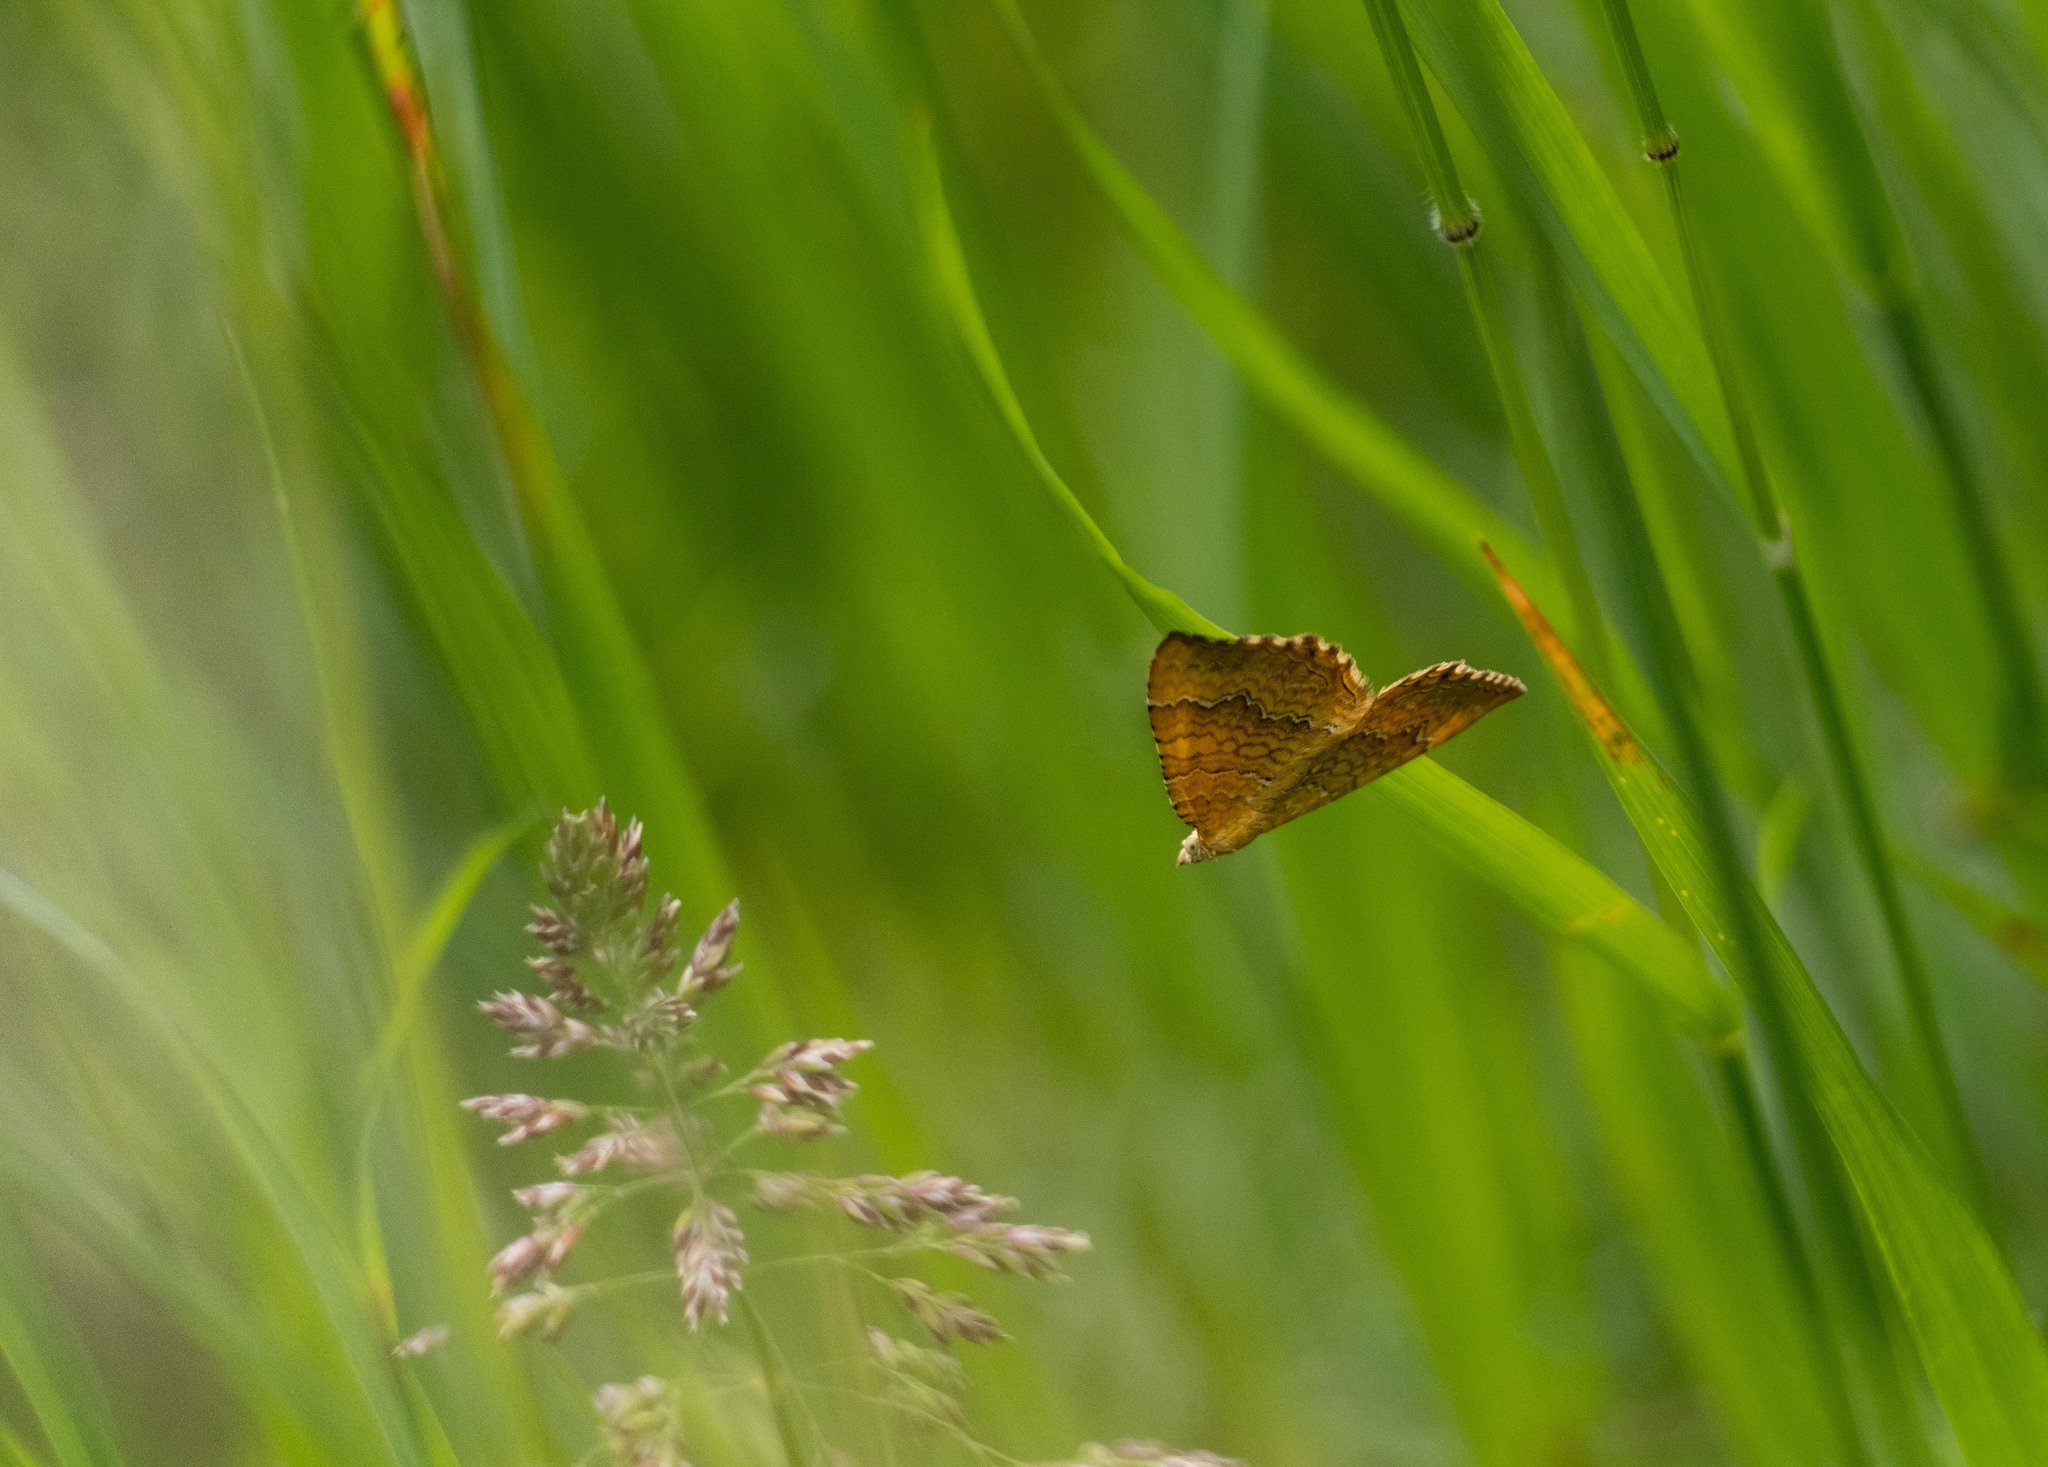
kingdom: Animalia
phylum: Arthropoda
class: Insecta
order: Lepidoptera
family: Geometridae
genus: Camptogramma
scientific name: Camptogramma bilineata
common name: Yellow shell
